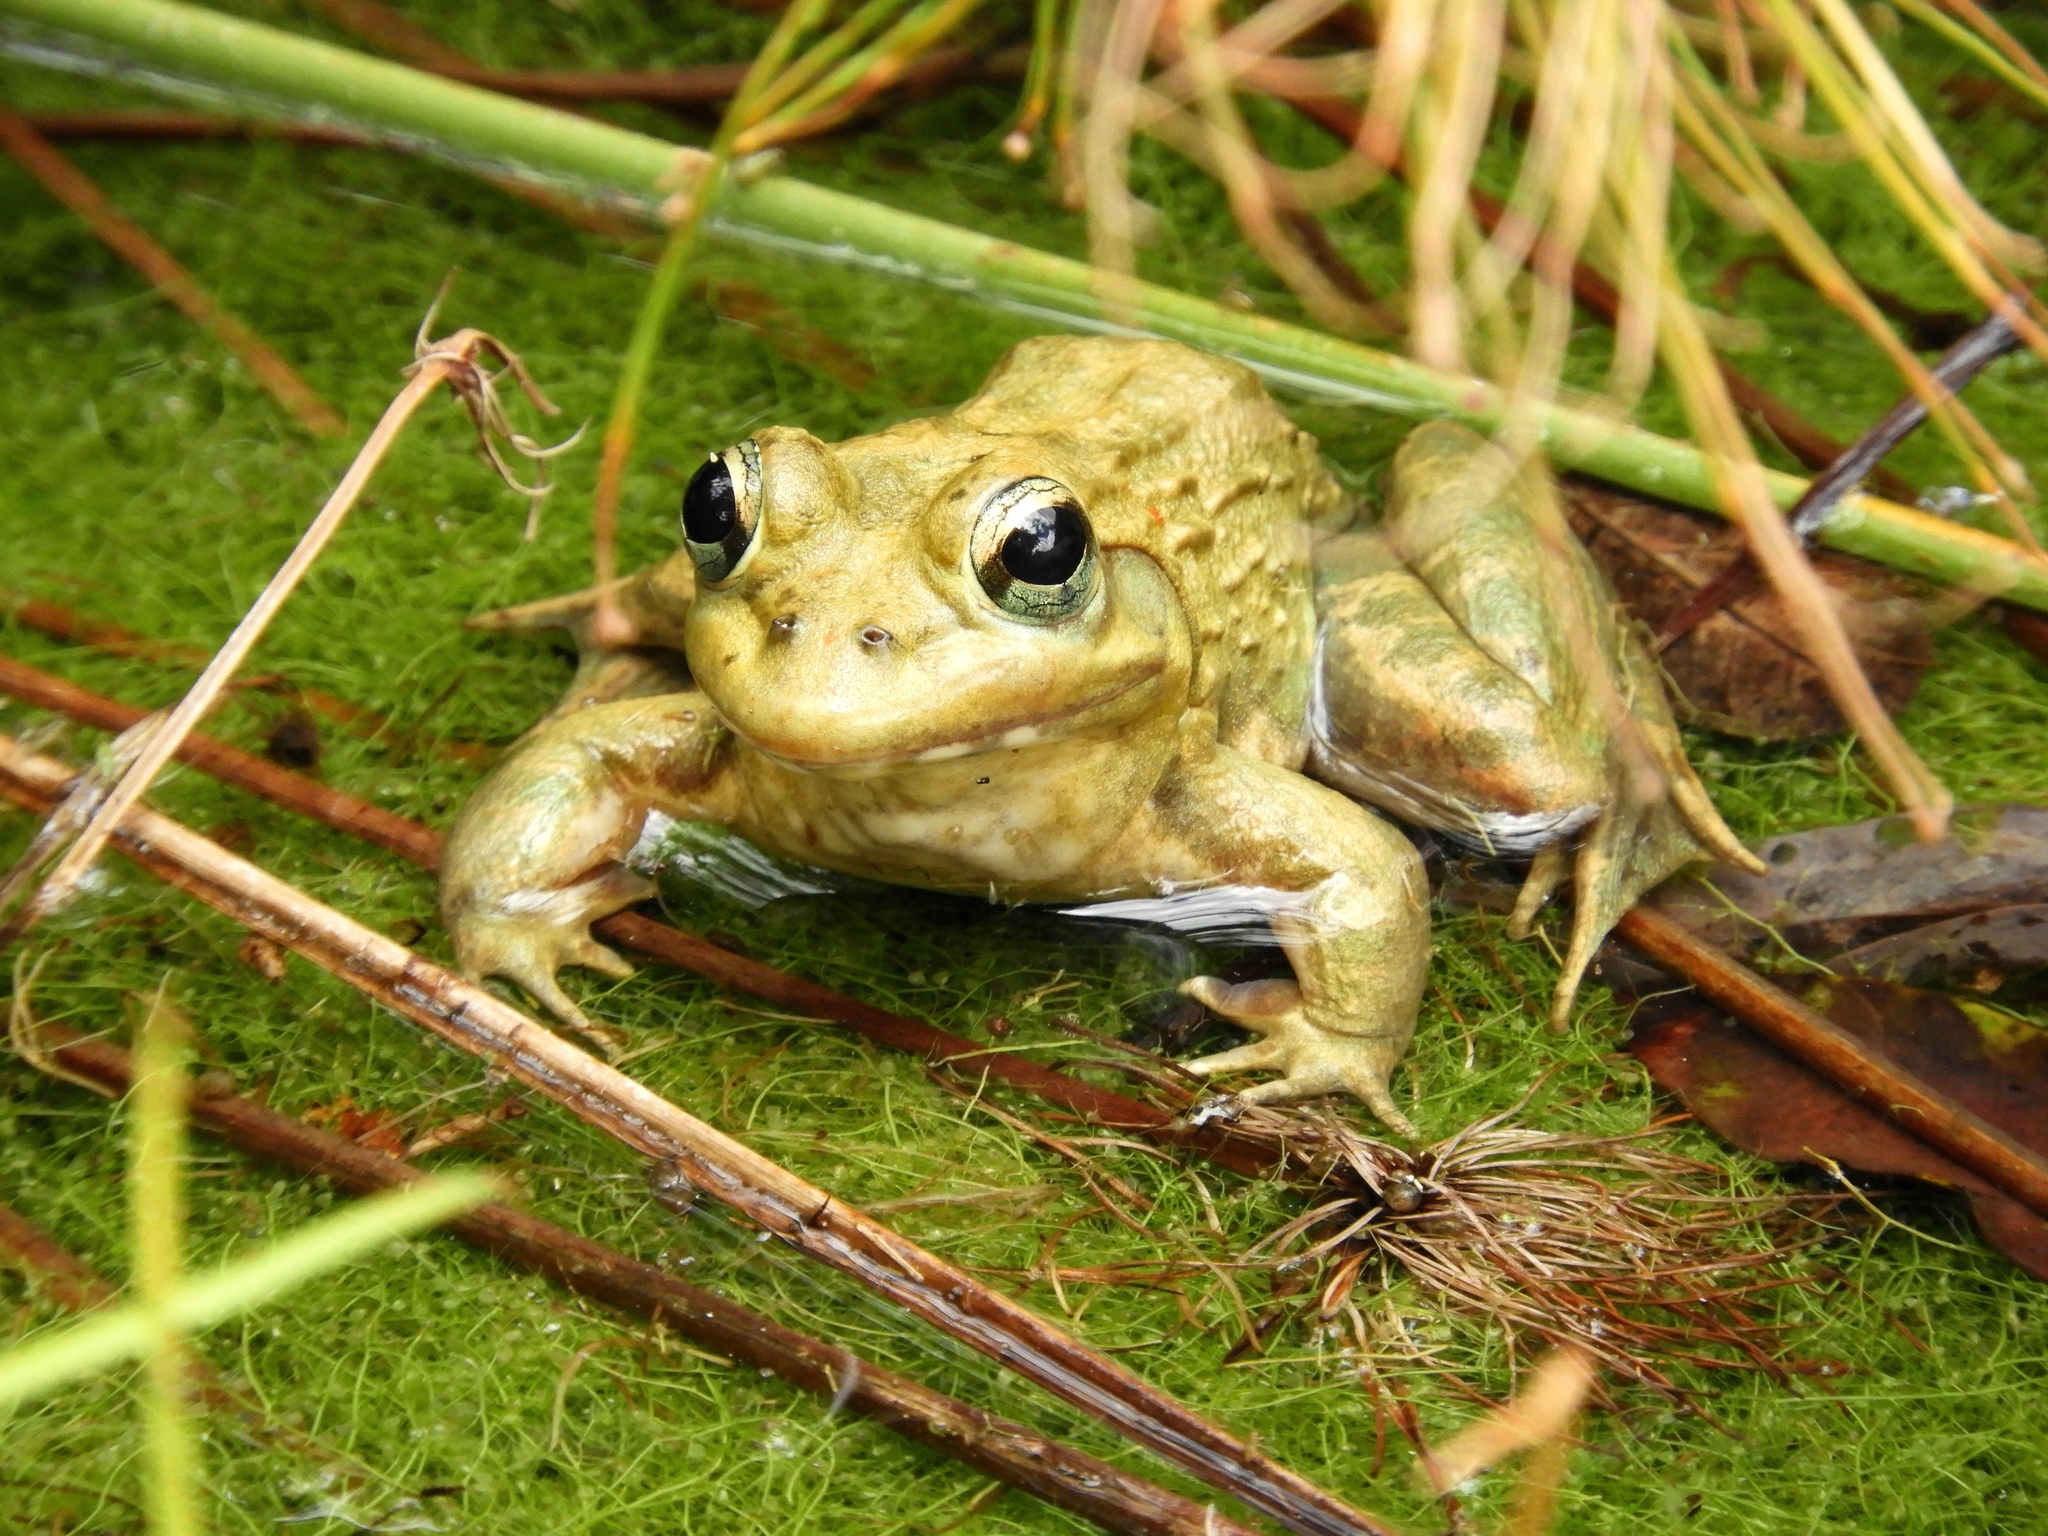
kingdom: Animalia
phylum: Chordata
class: Amphibia
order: Anura
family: Pyxicephalidae
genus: Amietia
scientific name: Amietia fuscigula
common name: Cape rana
